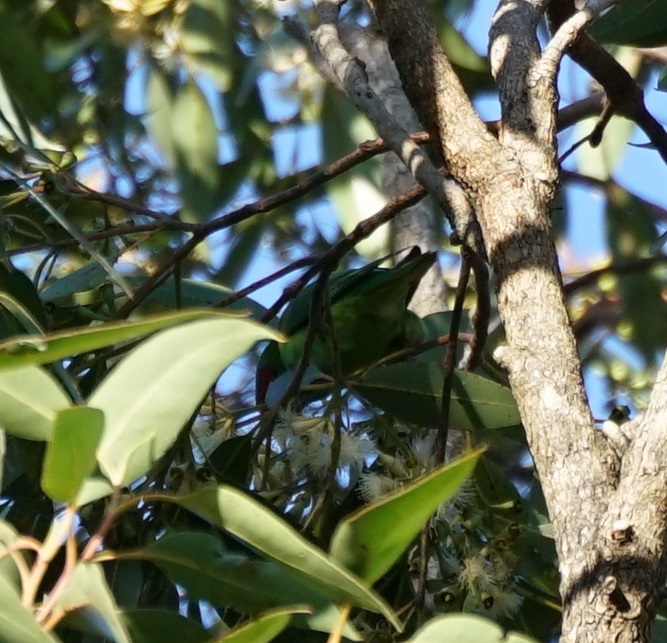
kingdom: Animalia
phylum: Chordata
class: Aves
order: Psittaciformes
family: Psittacidae
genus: Glossopsitta
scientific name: Glossopsitta concinna
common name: Musk lorikeet
